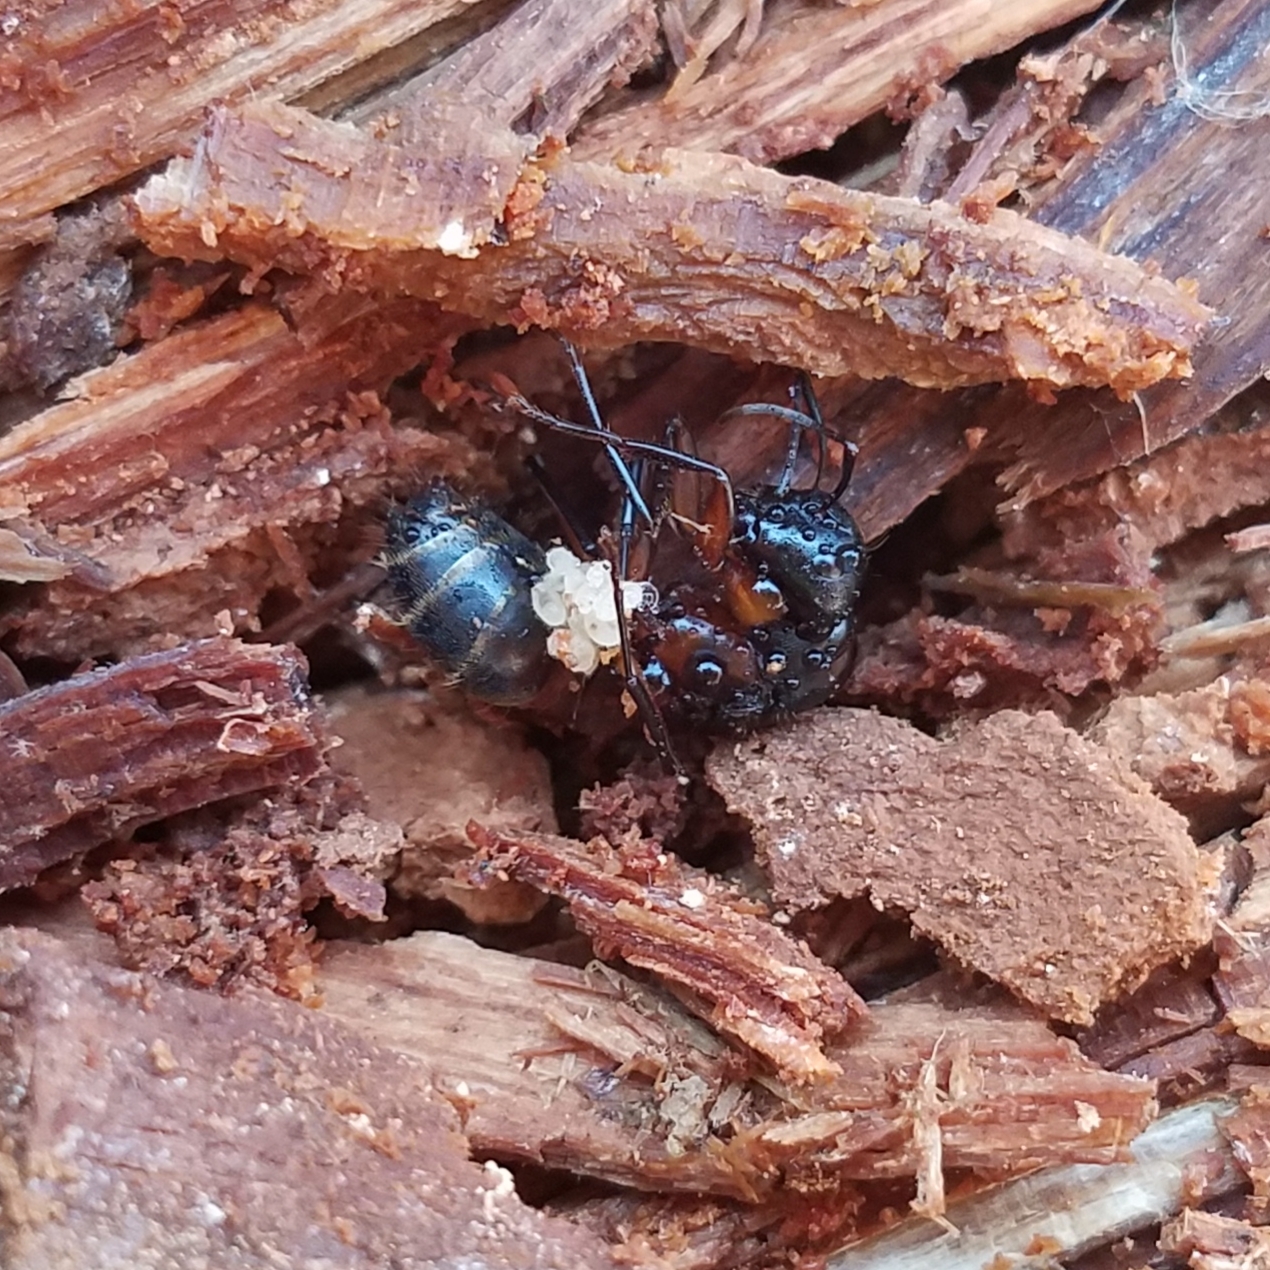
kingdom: Animalia
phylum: Arthropoda
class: Insecta
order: Hymenoptera
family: Formicidae
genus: Camponotus
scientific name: Camponotus chromaiodes
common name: Red carpenter ant
